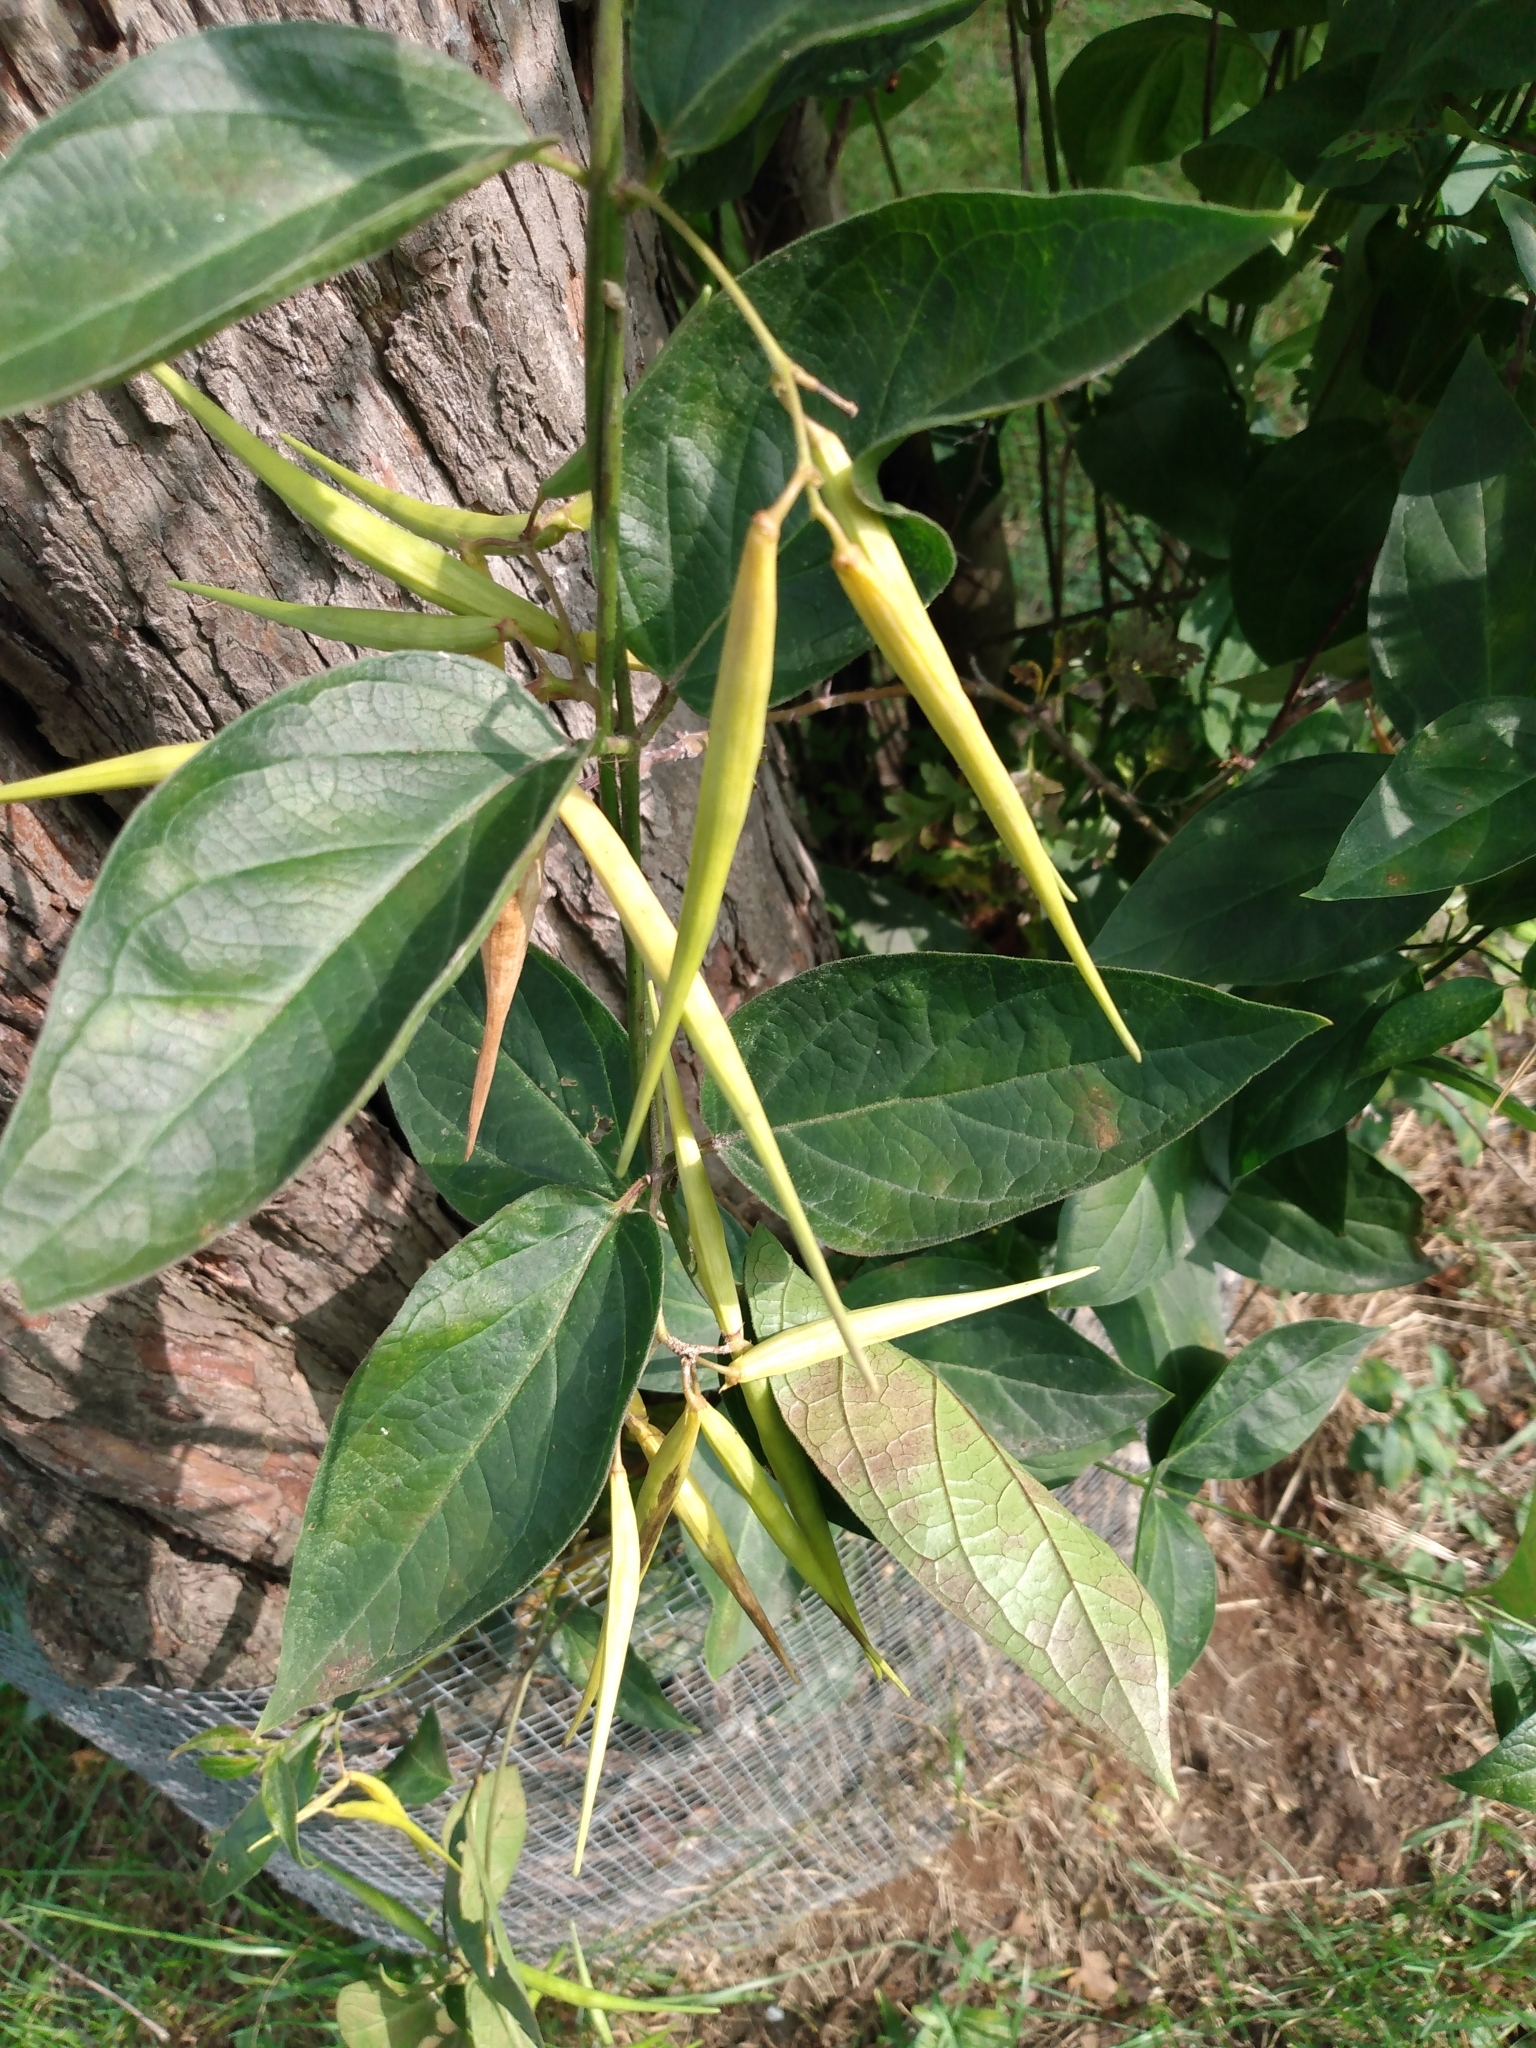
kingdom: Plantae
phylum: Tracheophyta
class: Magnoliopsida
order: Gentianales
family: Apocynaceae
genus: Vincetoxicum
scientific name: Vincetoxicum rossicum
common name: Dog-strangling vine
